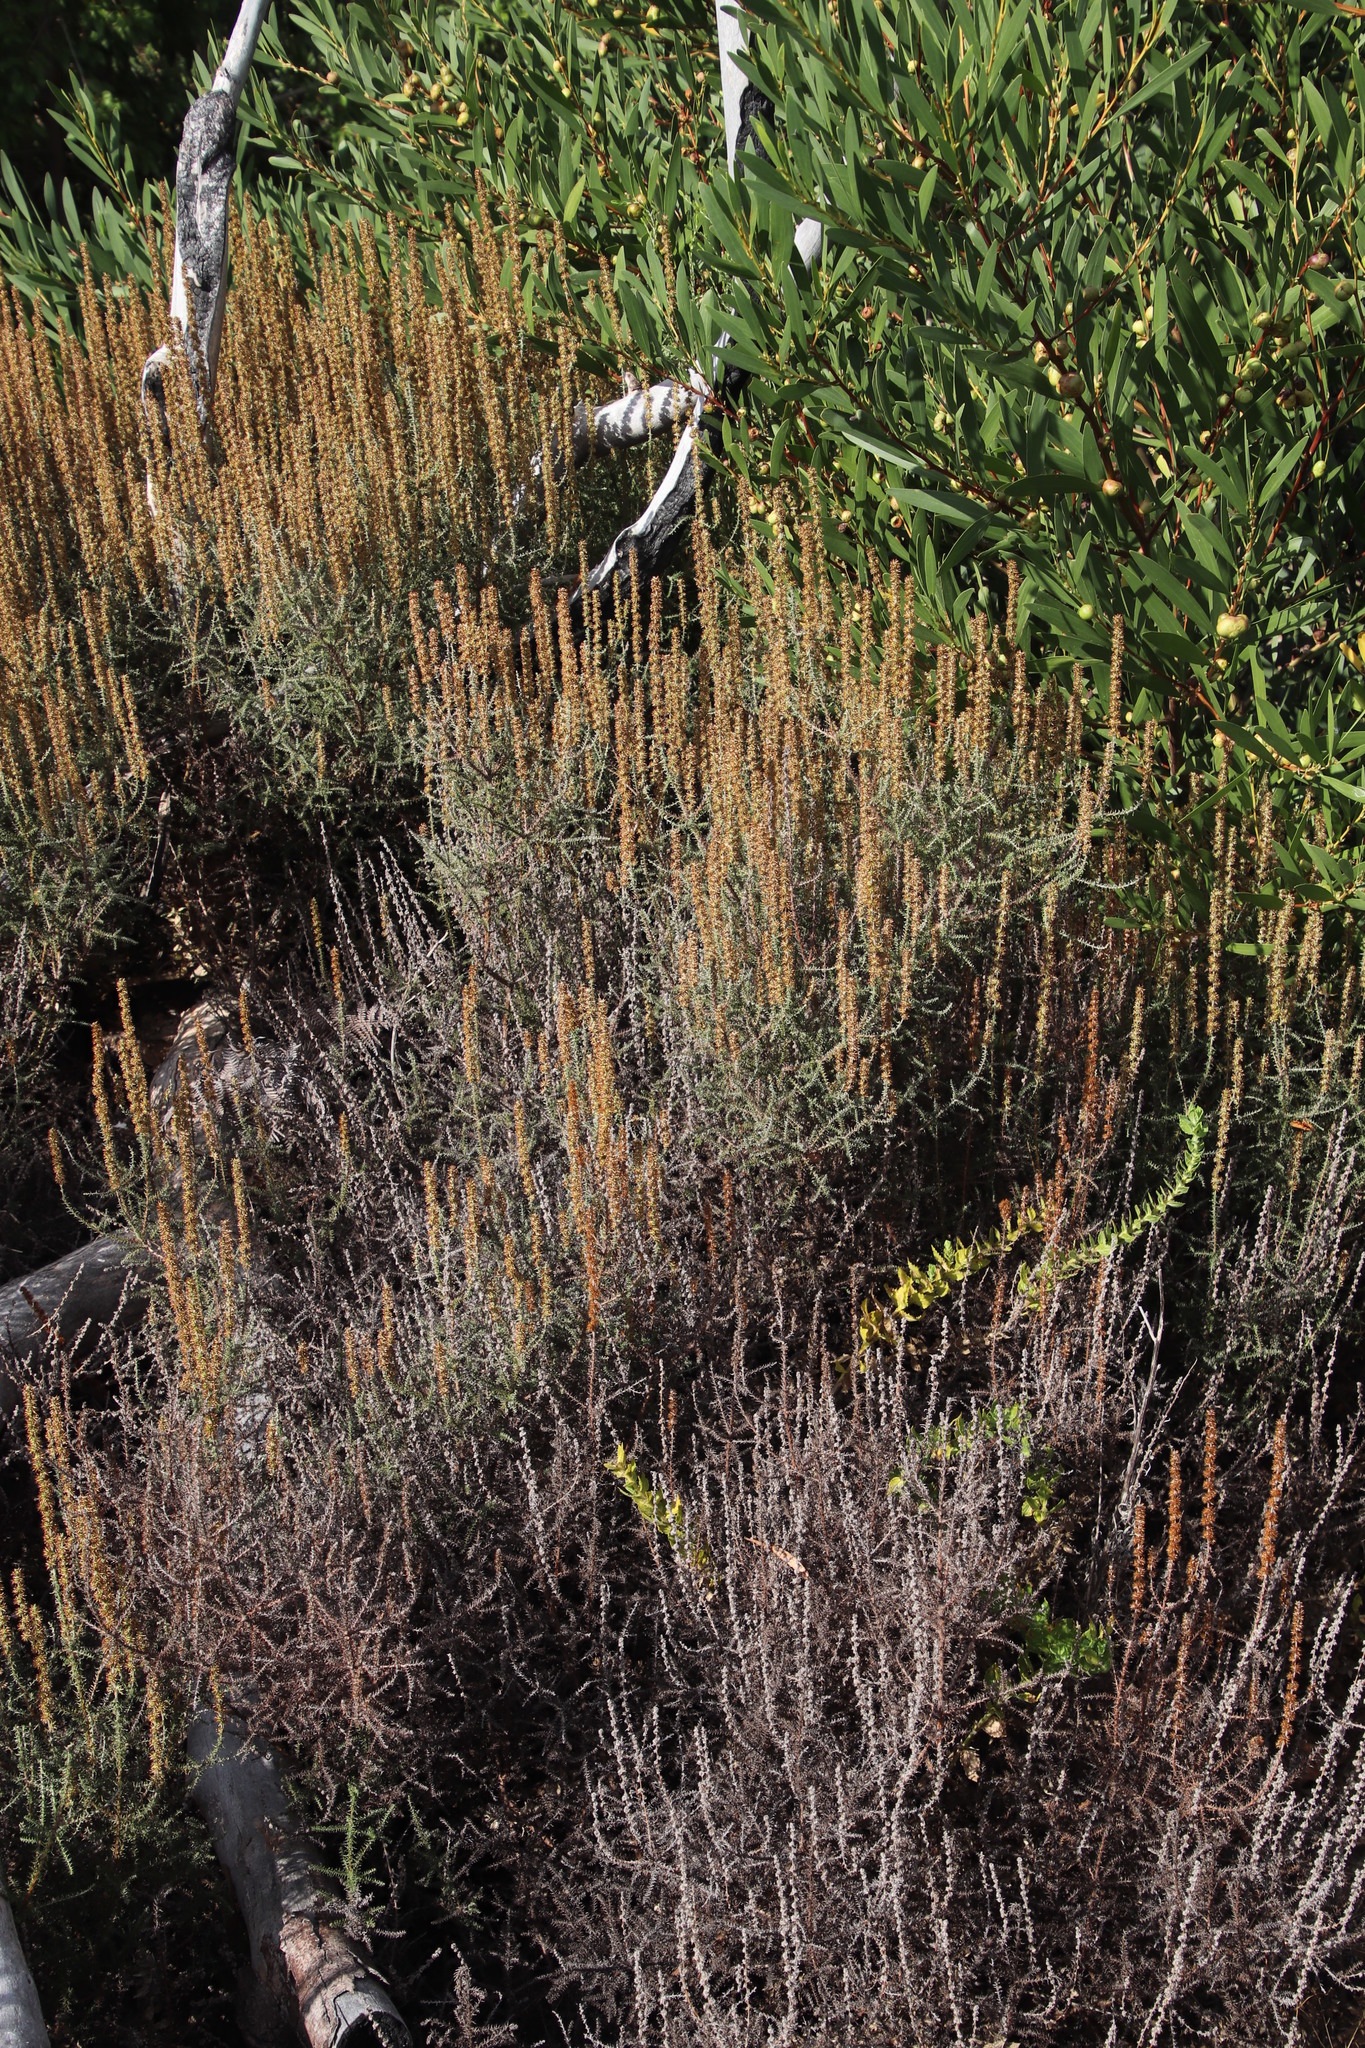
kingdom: Plantae
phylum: Tracheophyta
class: Magnoliopsida
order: Asterales
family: Asteraceae
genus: Seriphium
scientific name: Seriphium cinereum
